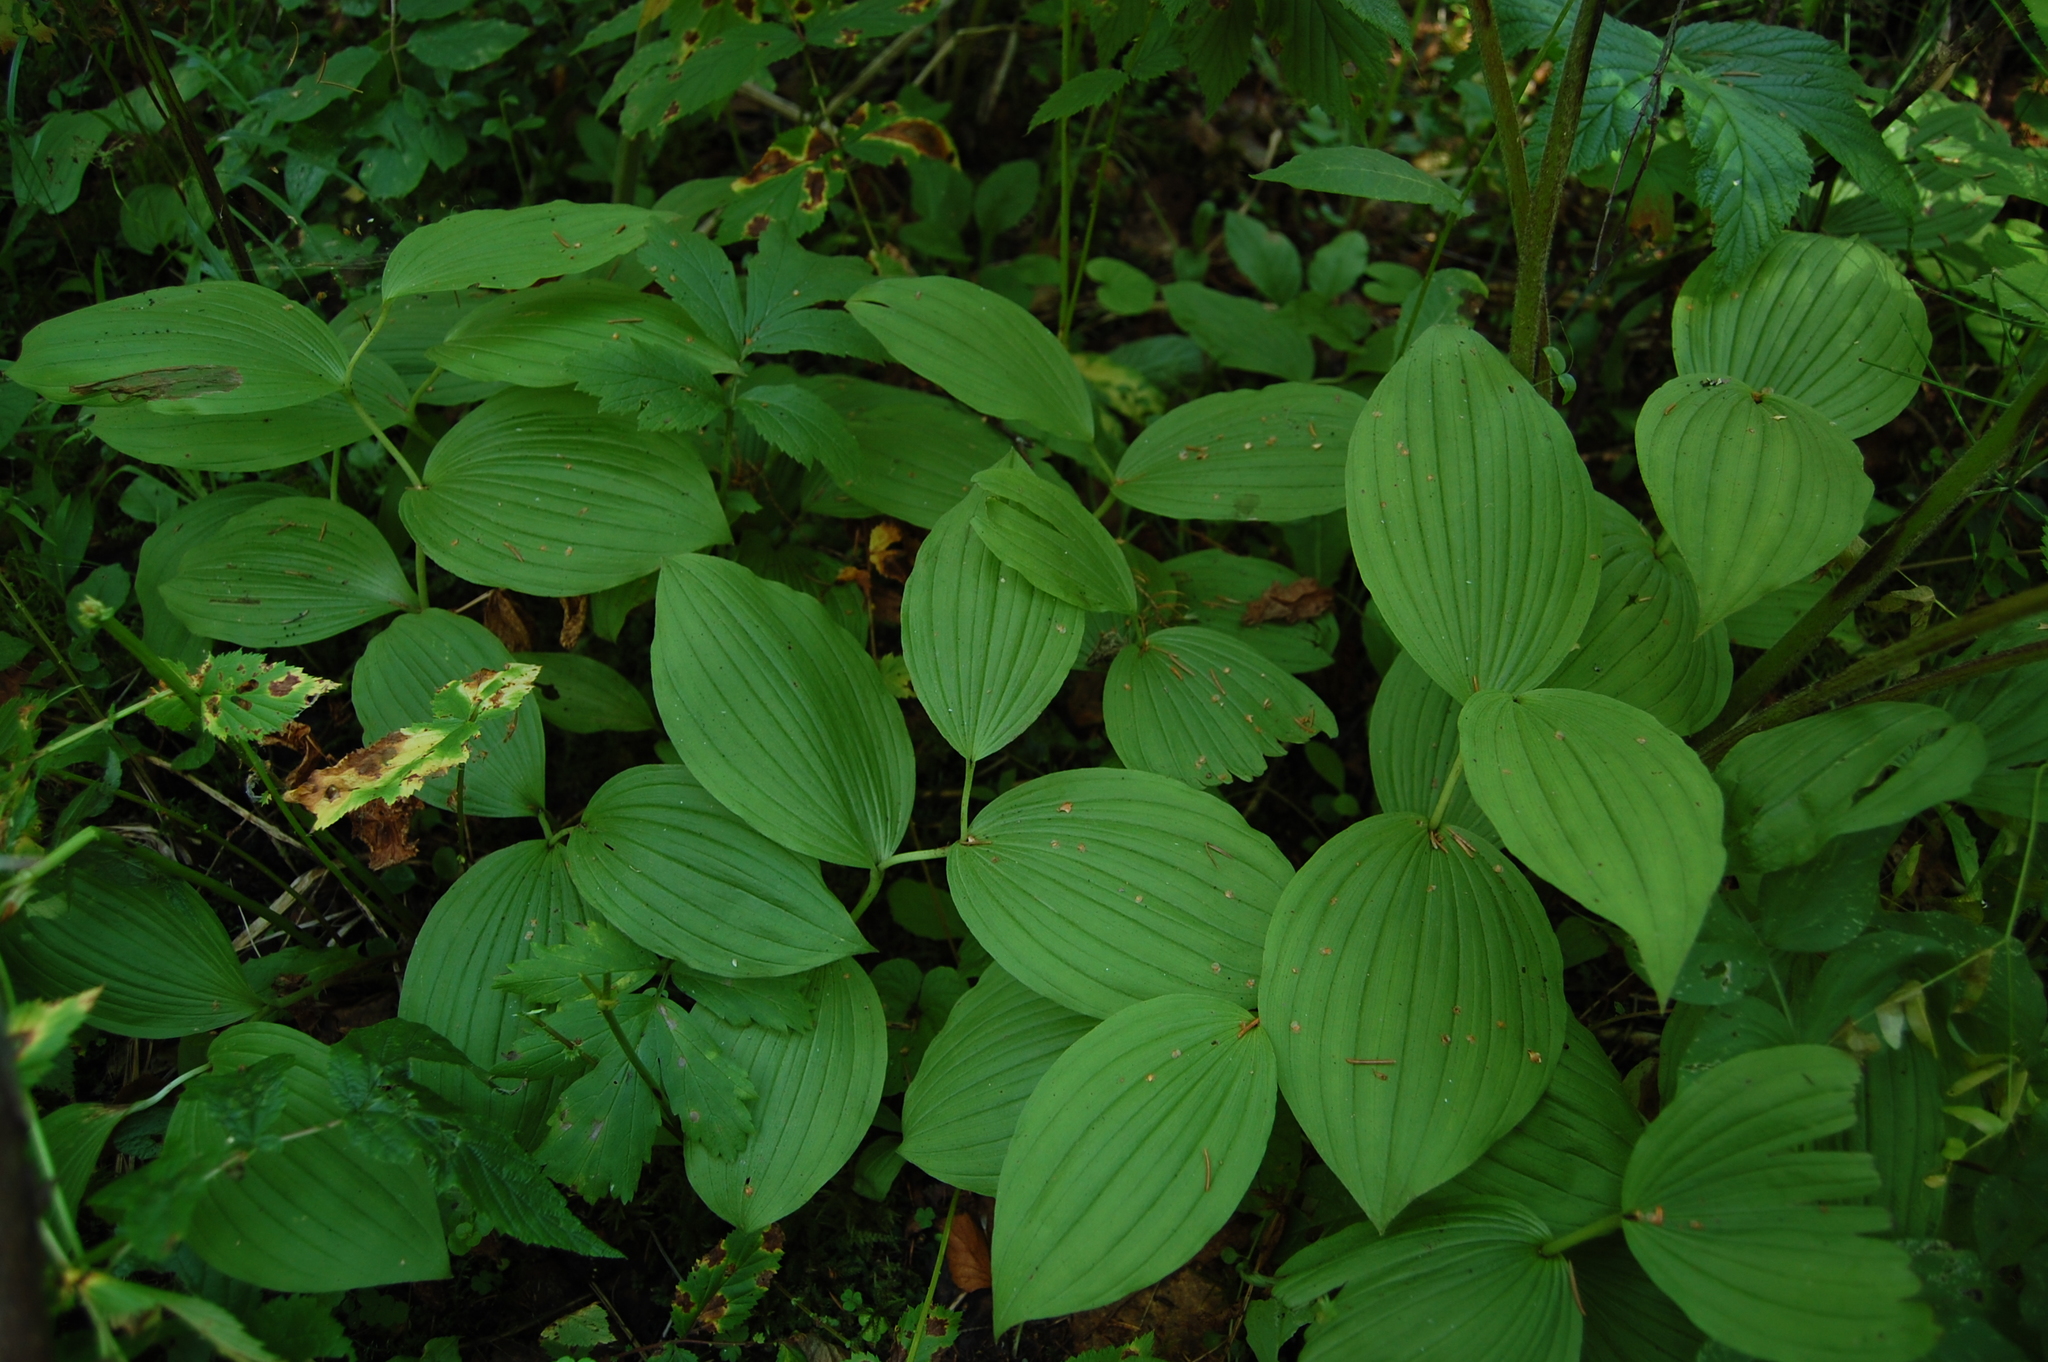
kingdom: Plantae
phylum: Tracheophyta
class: Liliopsida
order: Asparagales
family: Orchidaceae
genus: Cypripedium
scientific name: Cypripedium calceolus
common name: Lady's-slipper
